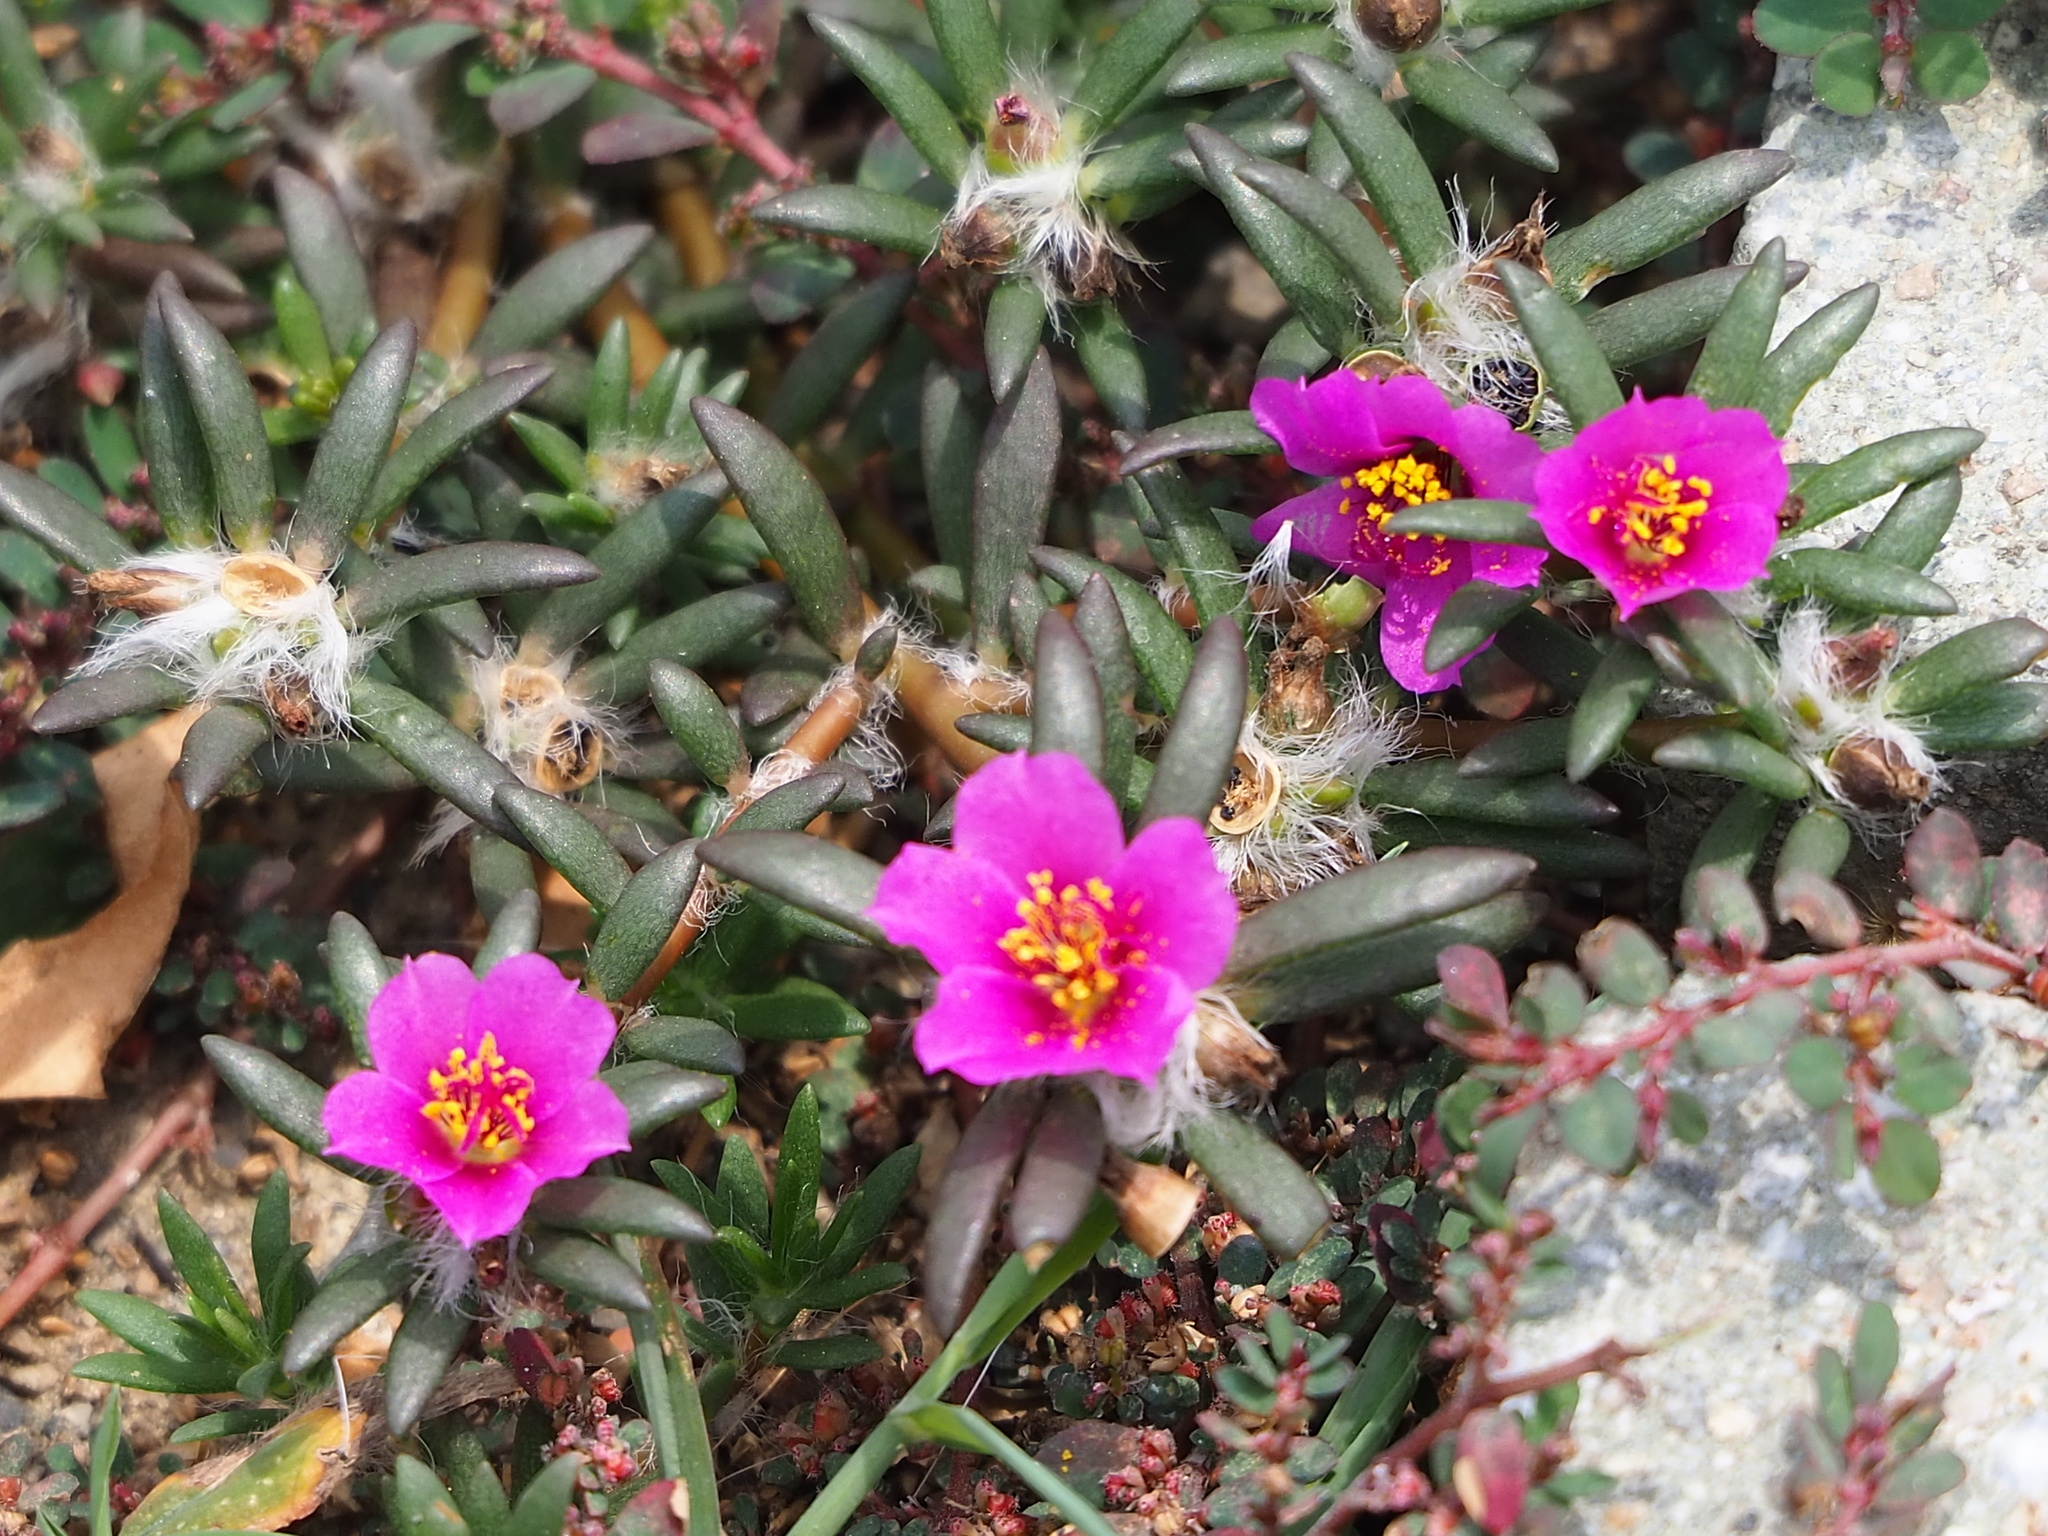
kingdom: Plantae
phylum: Tracheophyta
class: Magnoliopsida
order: Caryophyllales
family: Portulacaceae
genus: Portulaca
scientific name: Portulaca pilosa
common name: Kiss me quick
